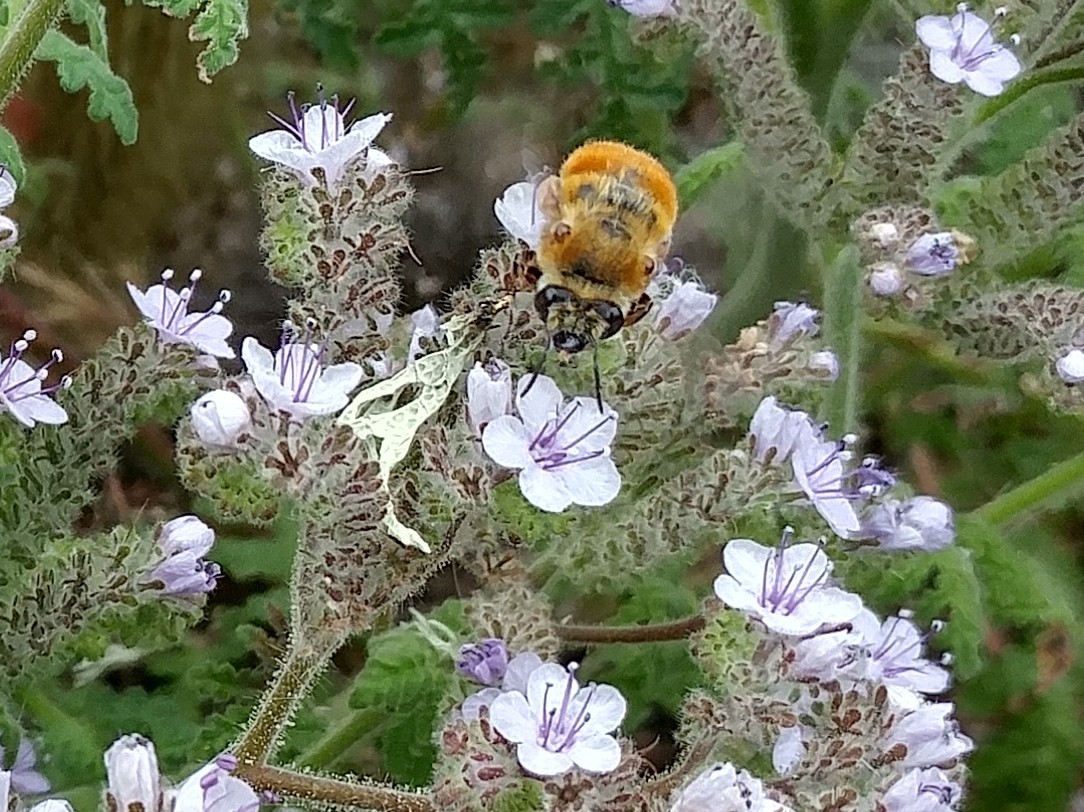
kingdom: Animalia
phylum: Arthropoda
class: Insecta
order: Hymenoptera
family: Apidae
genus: Habropoda
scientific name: Habropoda depressa
